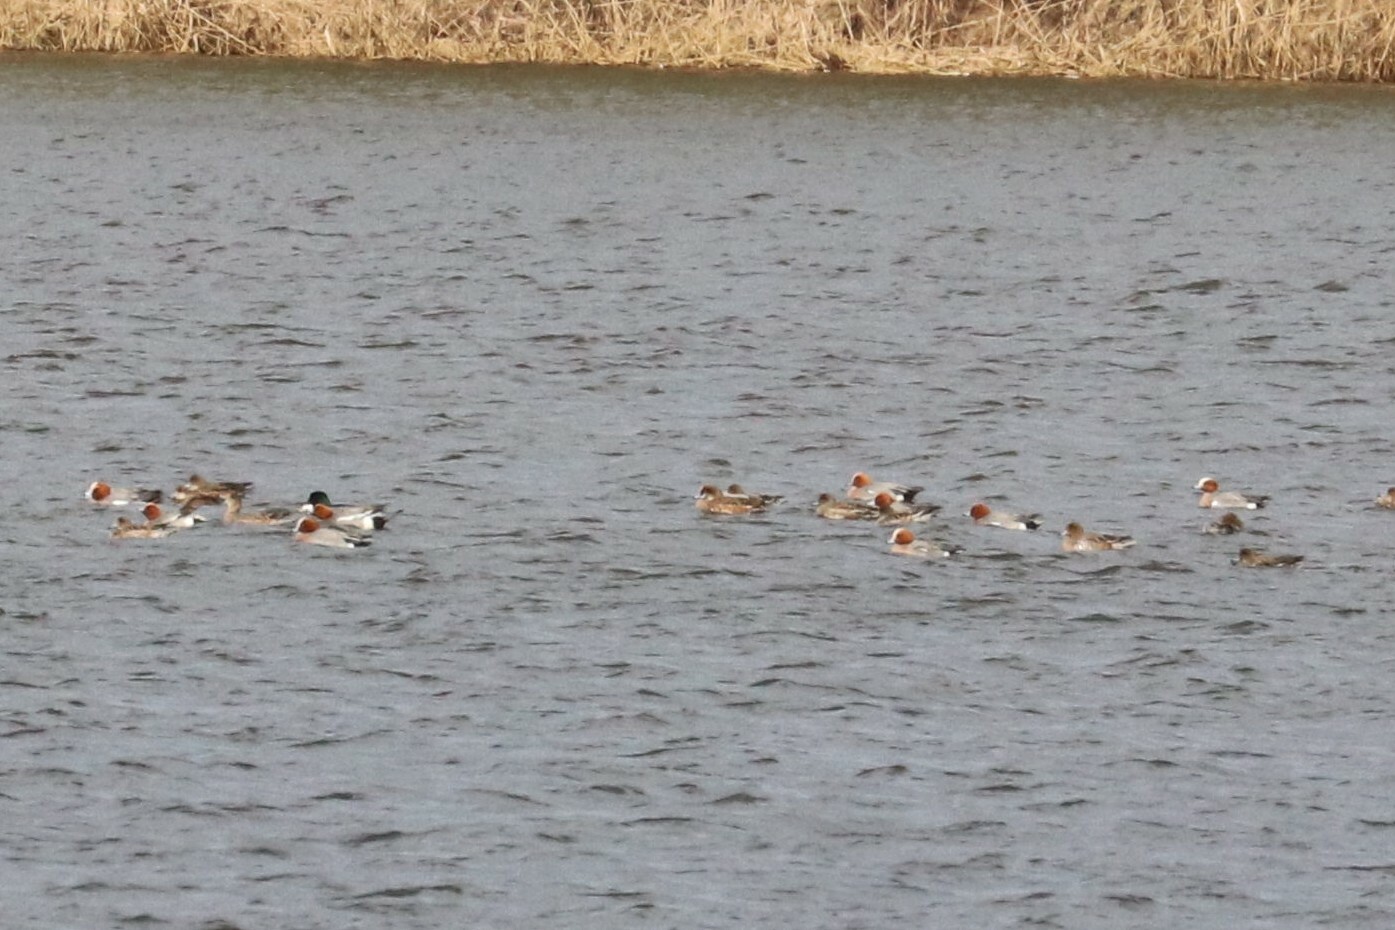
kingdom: Animalia
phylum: Chordata
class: Aves
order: Anseriformes
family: Anatidae
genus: Mareca
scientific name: Mareca penelope
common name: Eurasian wigeon
